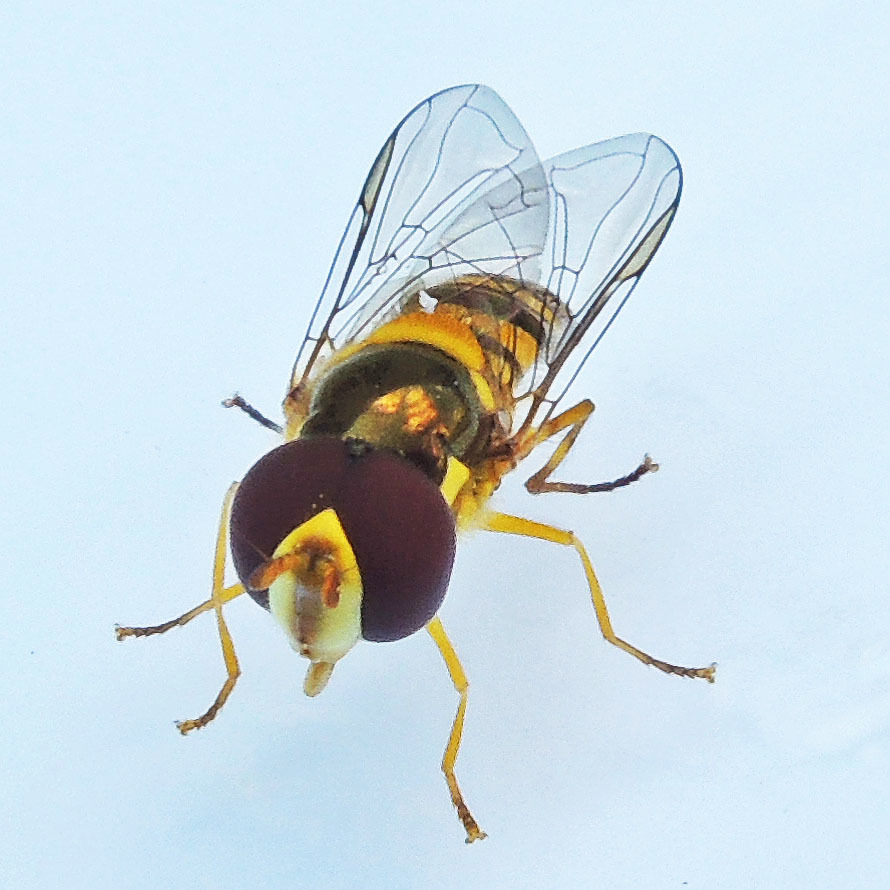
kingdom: Animalia
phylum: Arthropoda
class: Insecta
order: Diptera
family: Syrphidae
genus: Allograpta
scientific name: Allograpta obliqua
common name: Common oblique syrphid
